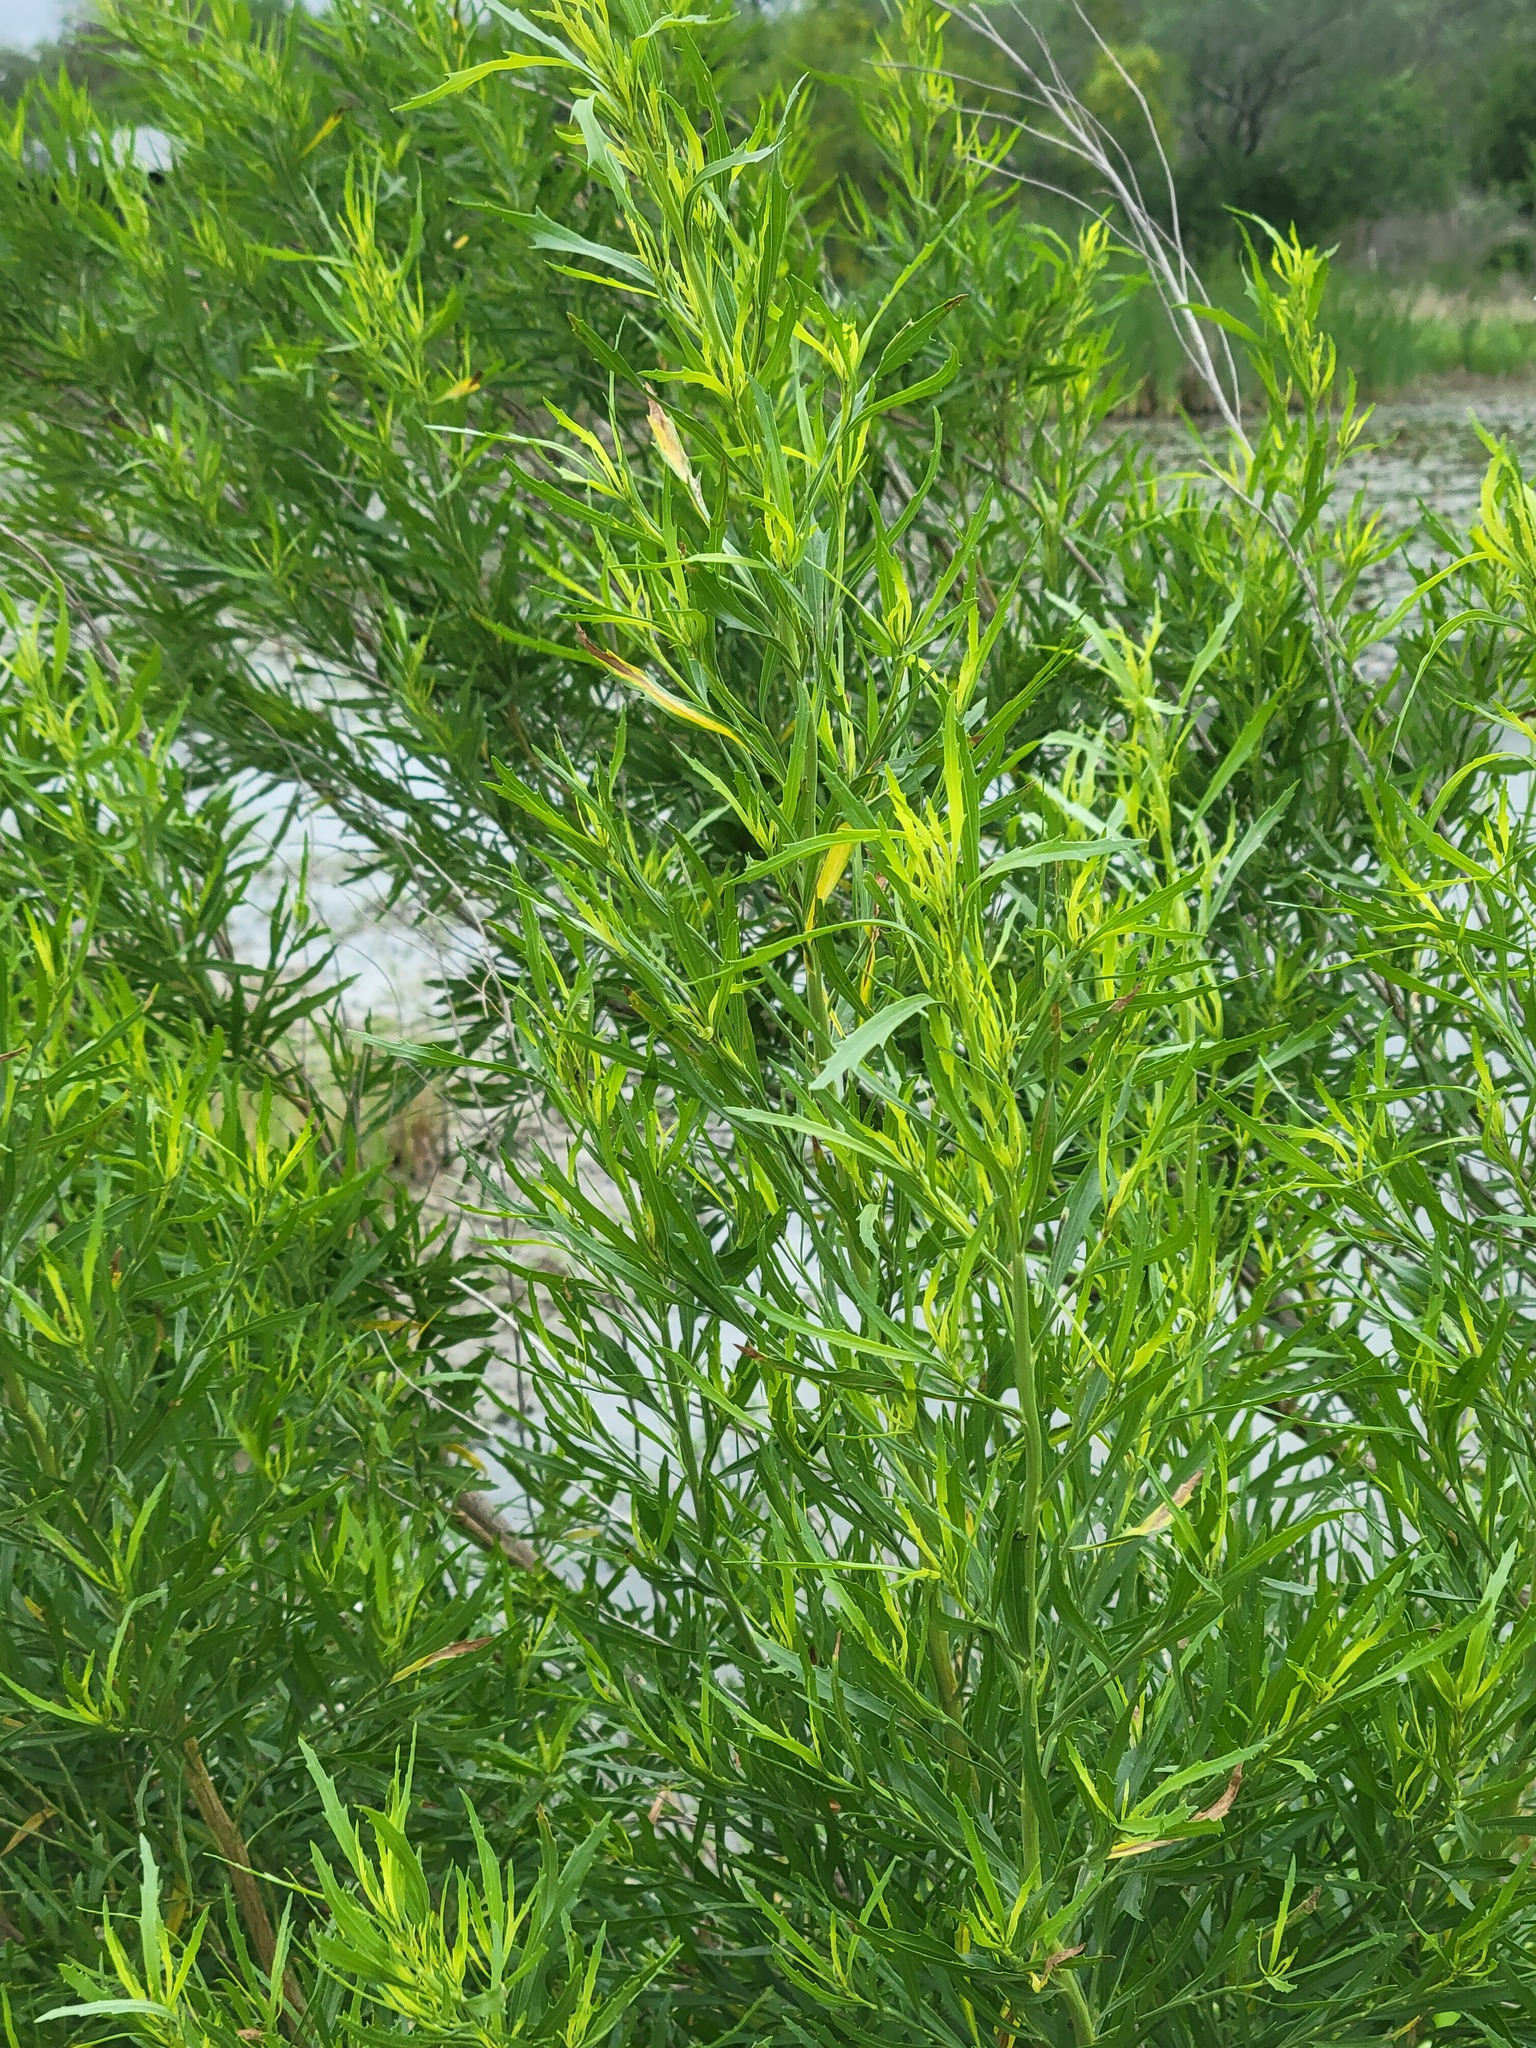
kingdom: Plantae
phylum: Tracheophyta
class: Magnoliopsida
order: Asterales
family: Asteraceae
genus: Baccharis
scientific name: Baccharis neglecta
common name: Roosevelt-weed
